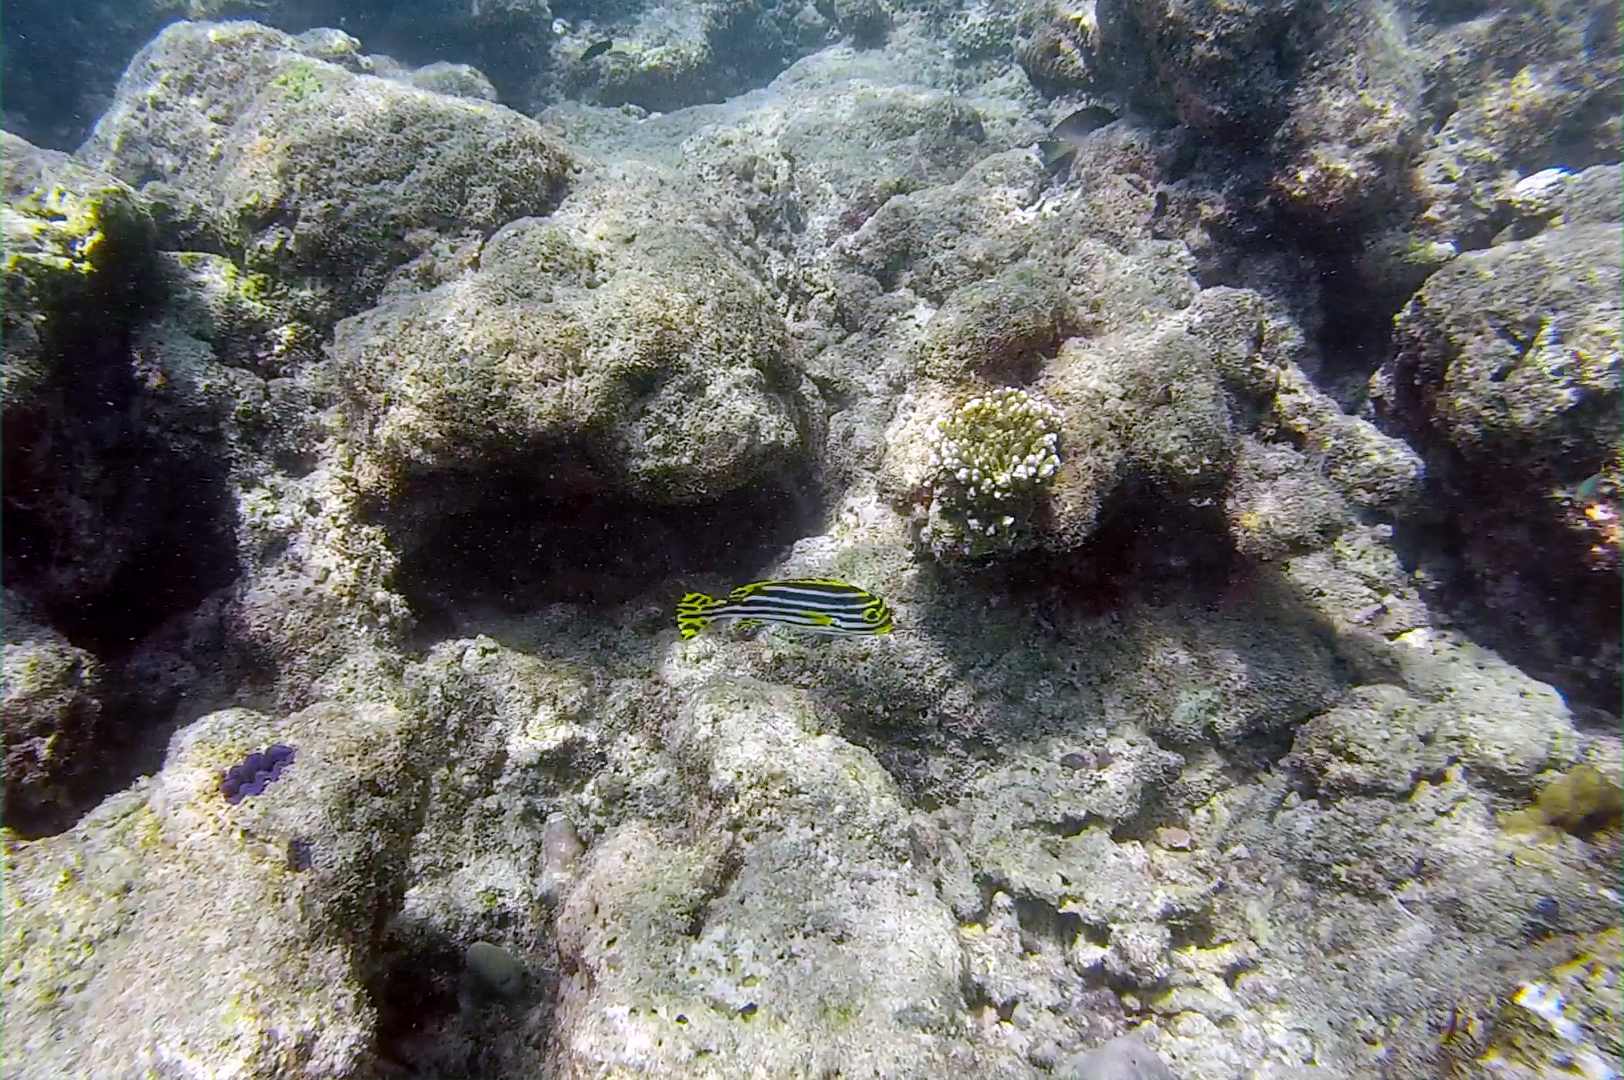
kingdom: Animalia
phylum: Chordata
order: Perciformes
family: Haemulidae
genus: Plectorhinchus
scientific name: Plectorhinchus vittatus
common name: Oriental sweetlips
